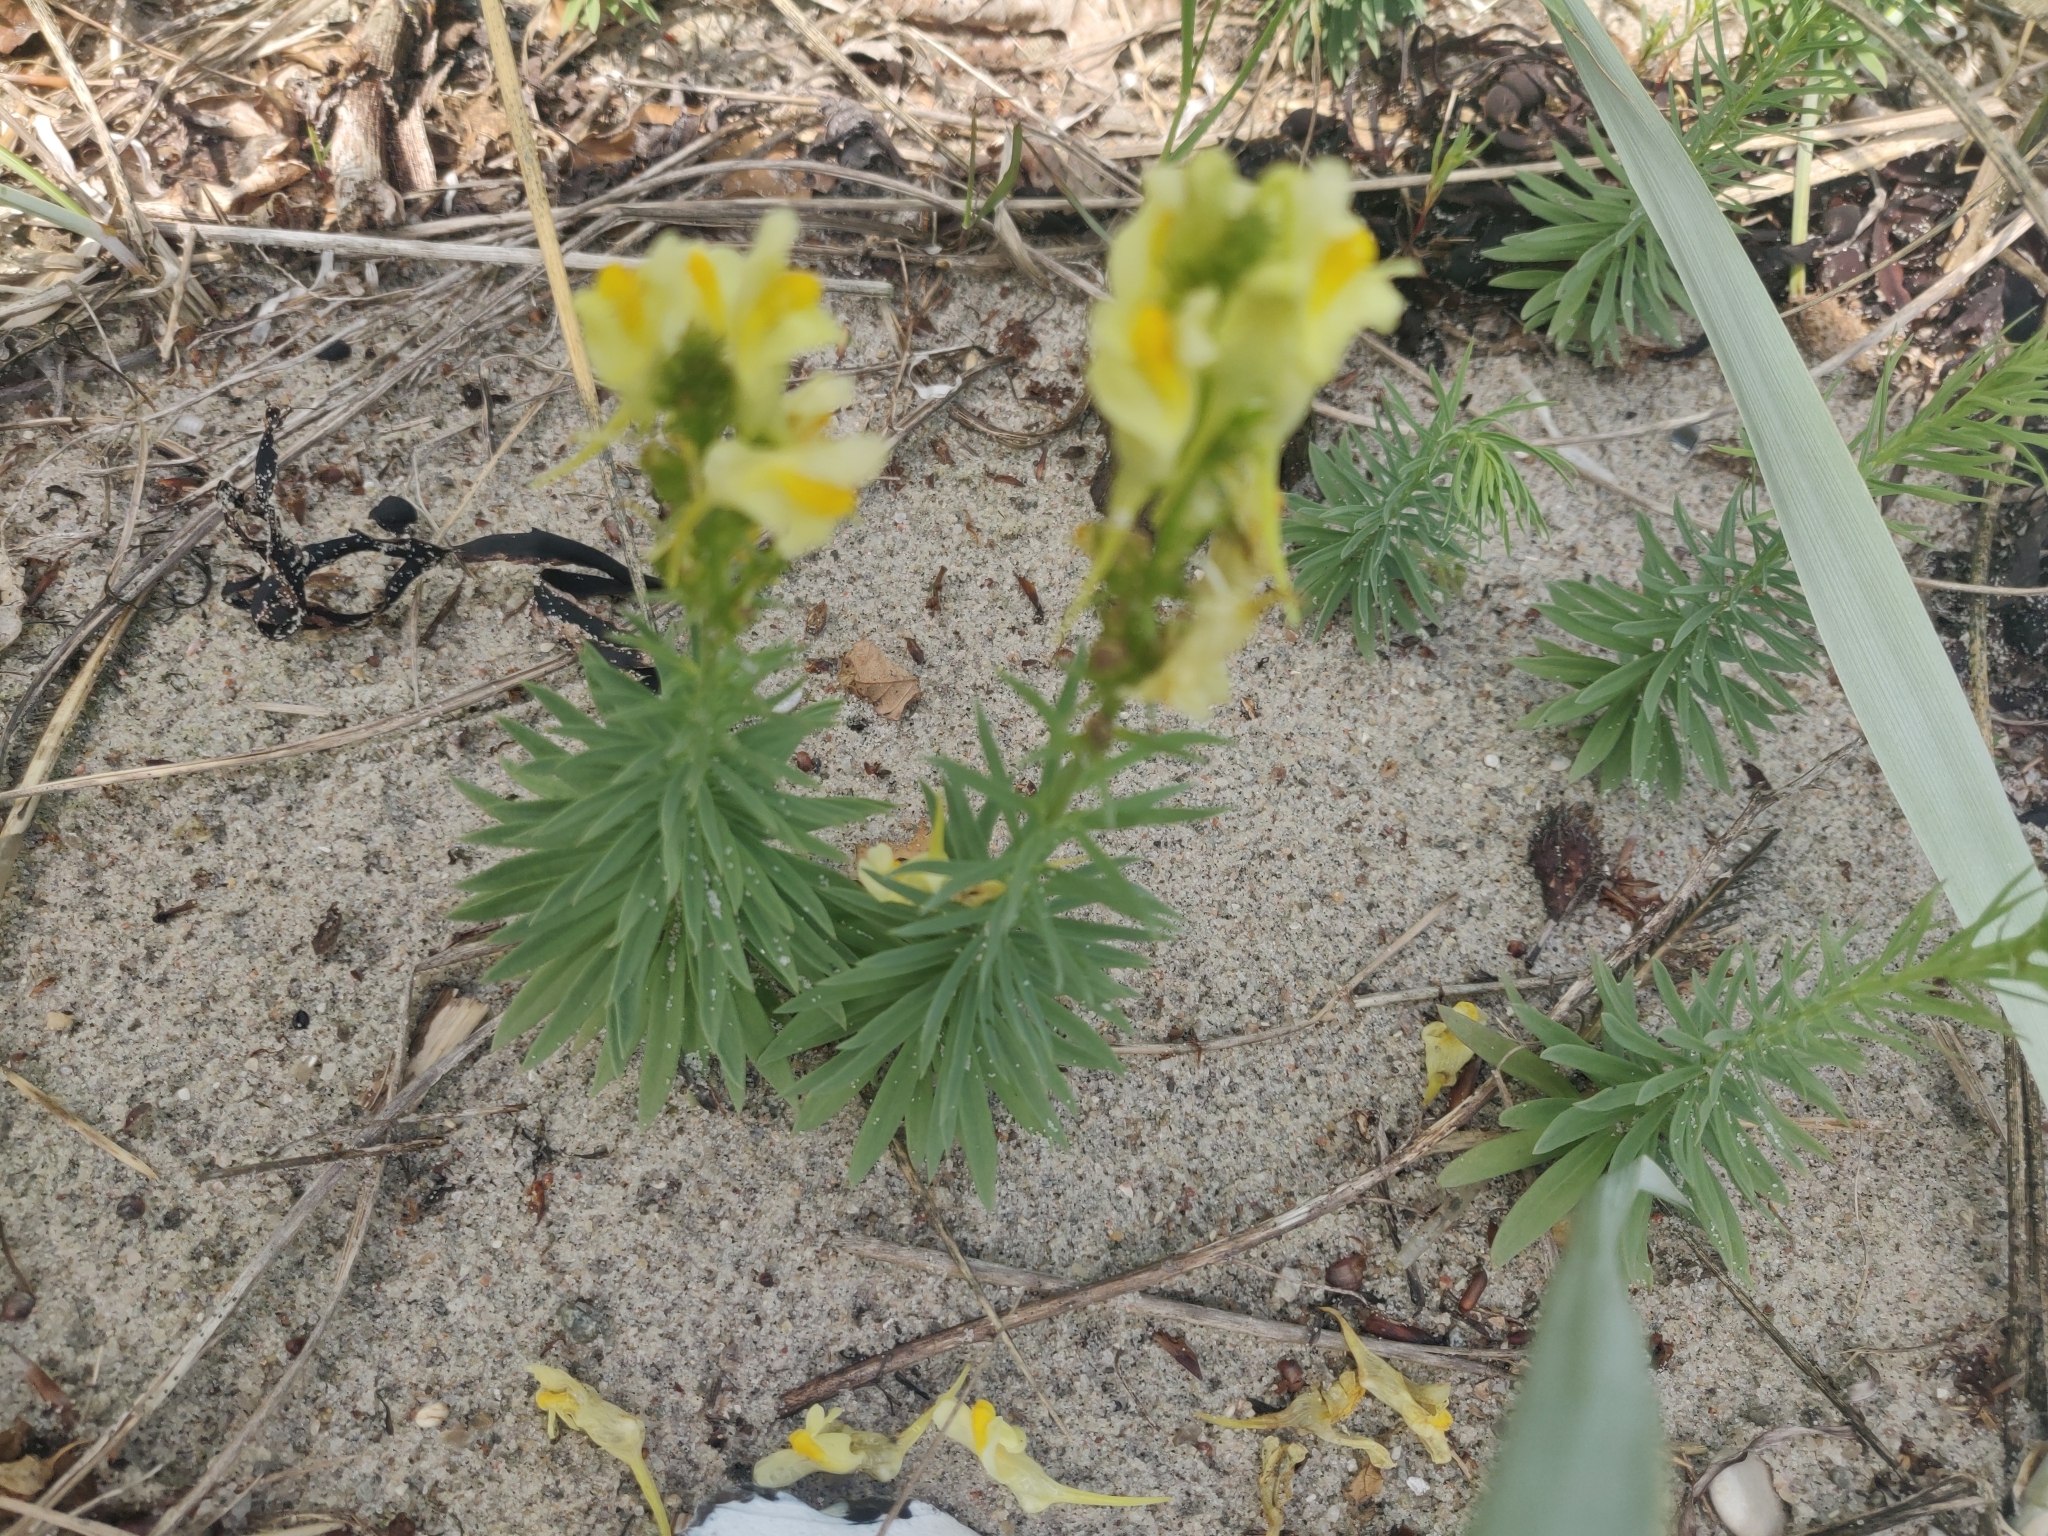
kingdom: Plantae
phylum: Tracheophyta
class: Magnoliopsida
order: Lamiales
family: Plantaginaceae
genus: Linaria
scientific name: Linaria vulgaris
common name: Butter and eggs
